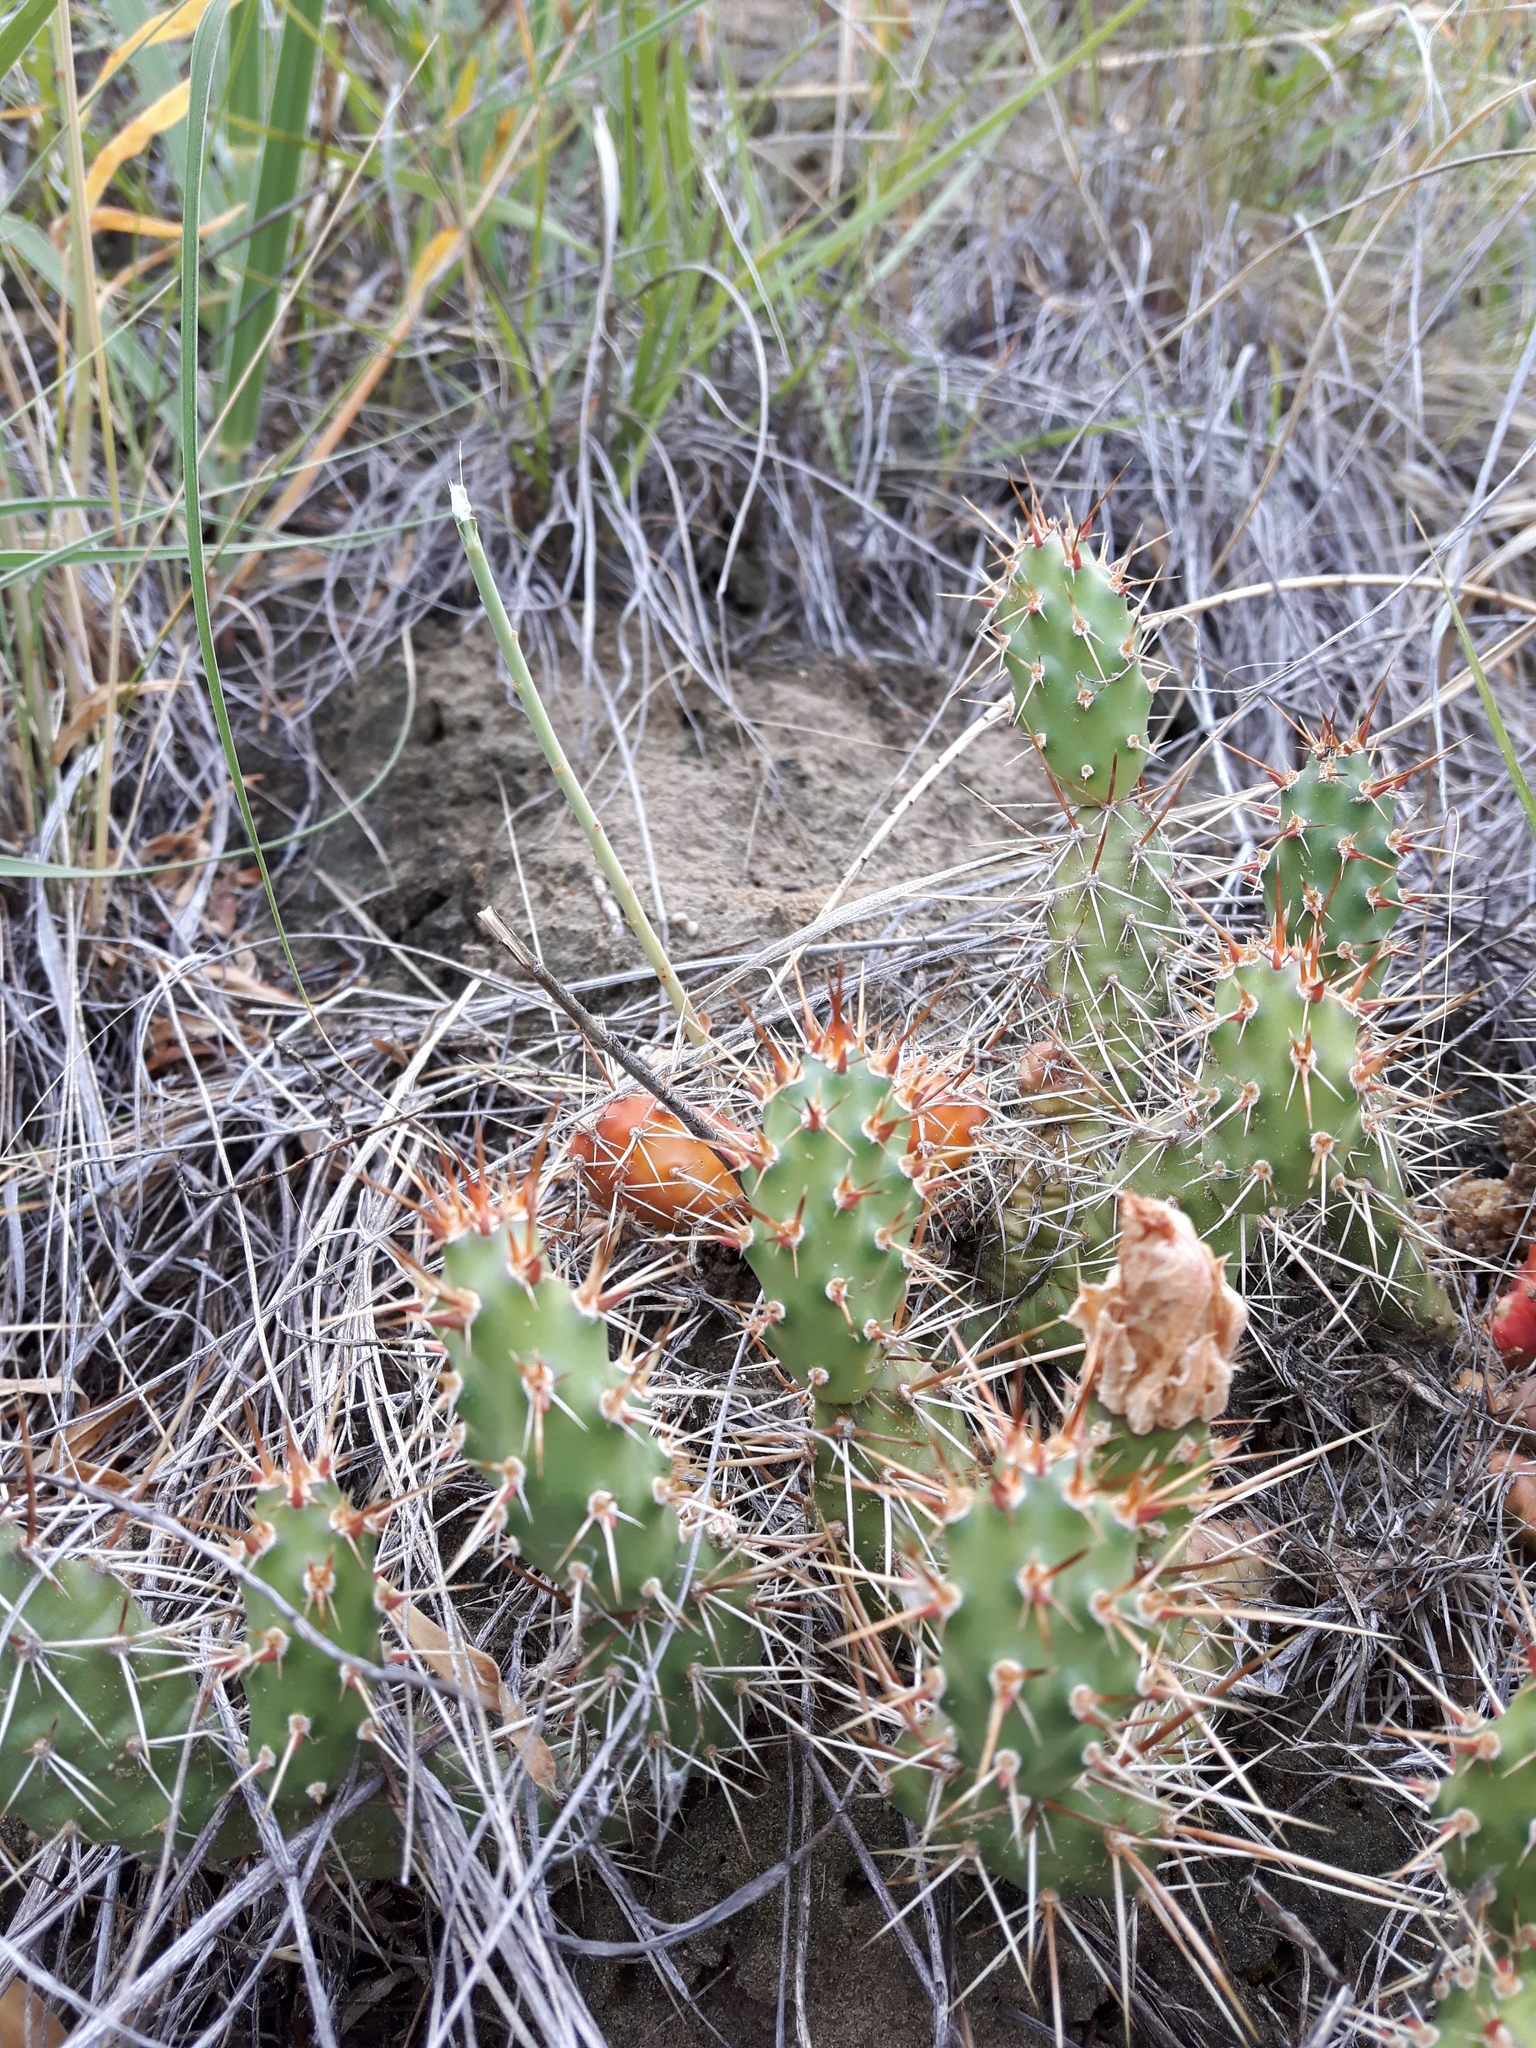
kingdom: Plantae
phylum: Tracheophyta
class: Magnoliopsida
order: Caryophyllales
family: Cactaceae
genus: Opuntia
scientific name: Opuntia fragilis
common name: Brittle cactus
